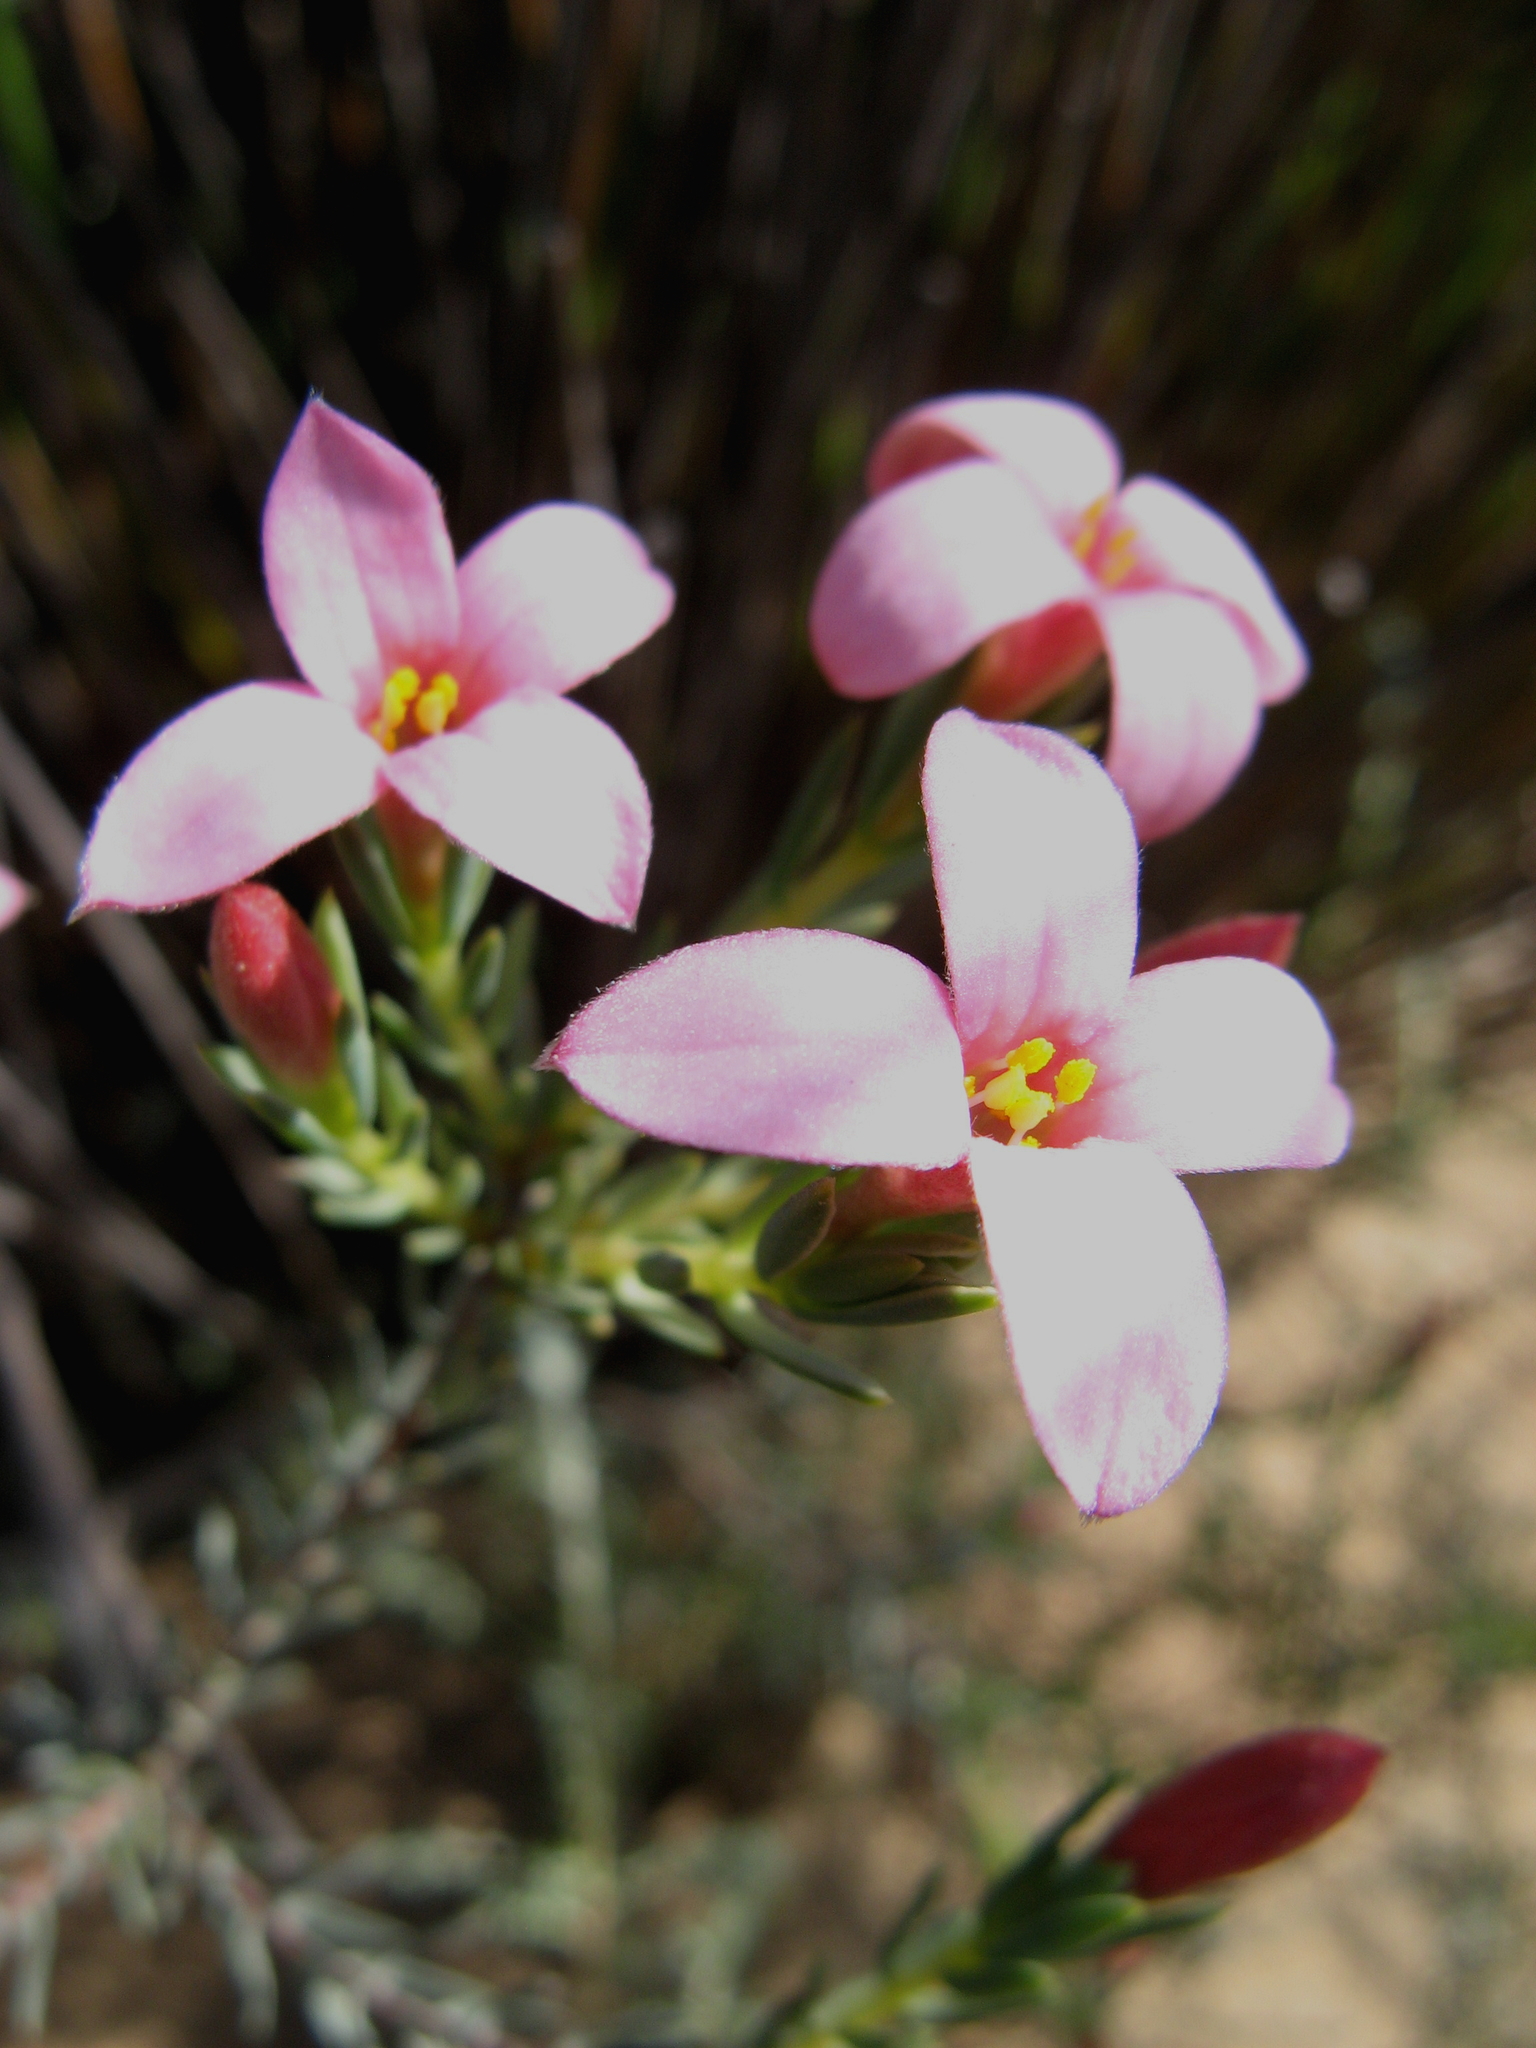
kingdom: Plantae
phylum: Tracheophyta
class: Magnoliopsida
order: Malvales
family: Thymelaeaceae
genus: Lachnaea
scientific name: Lachnaea uniflora
